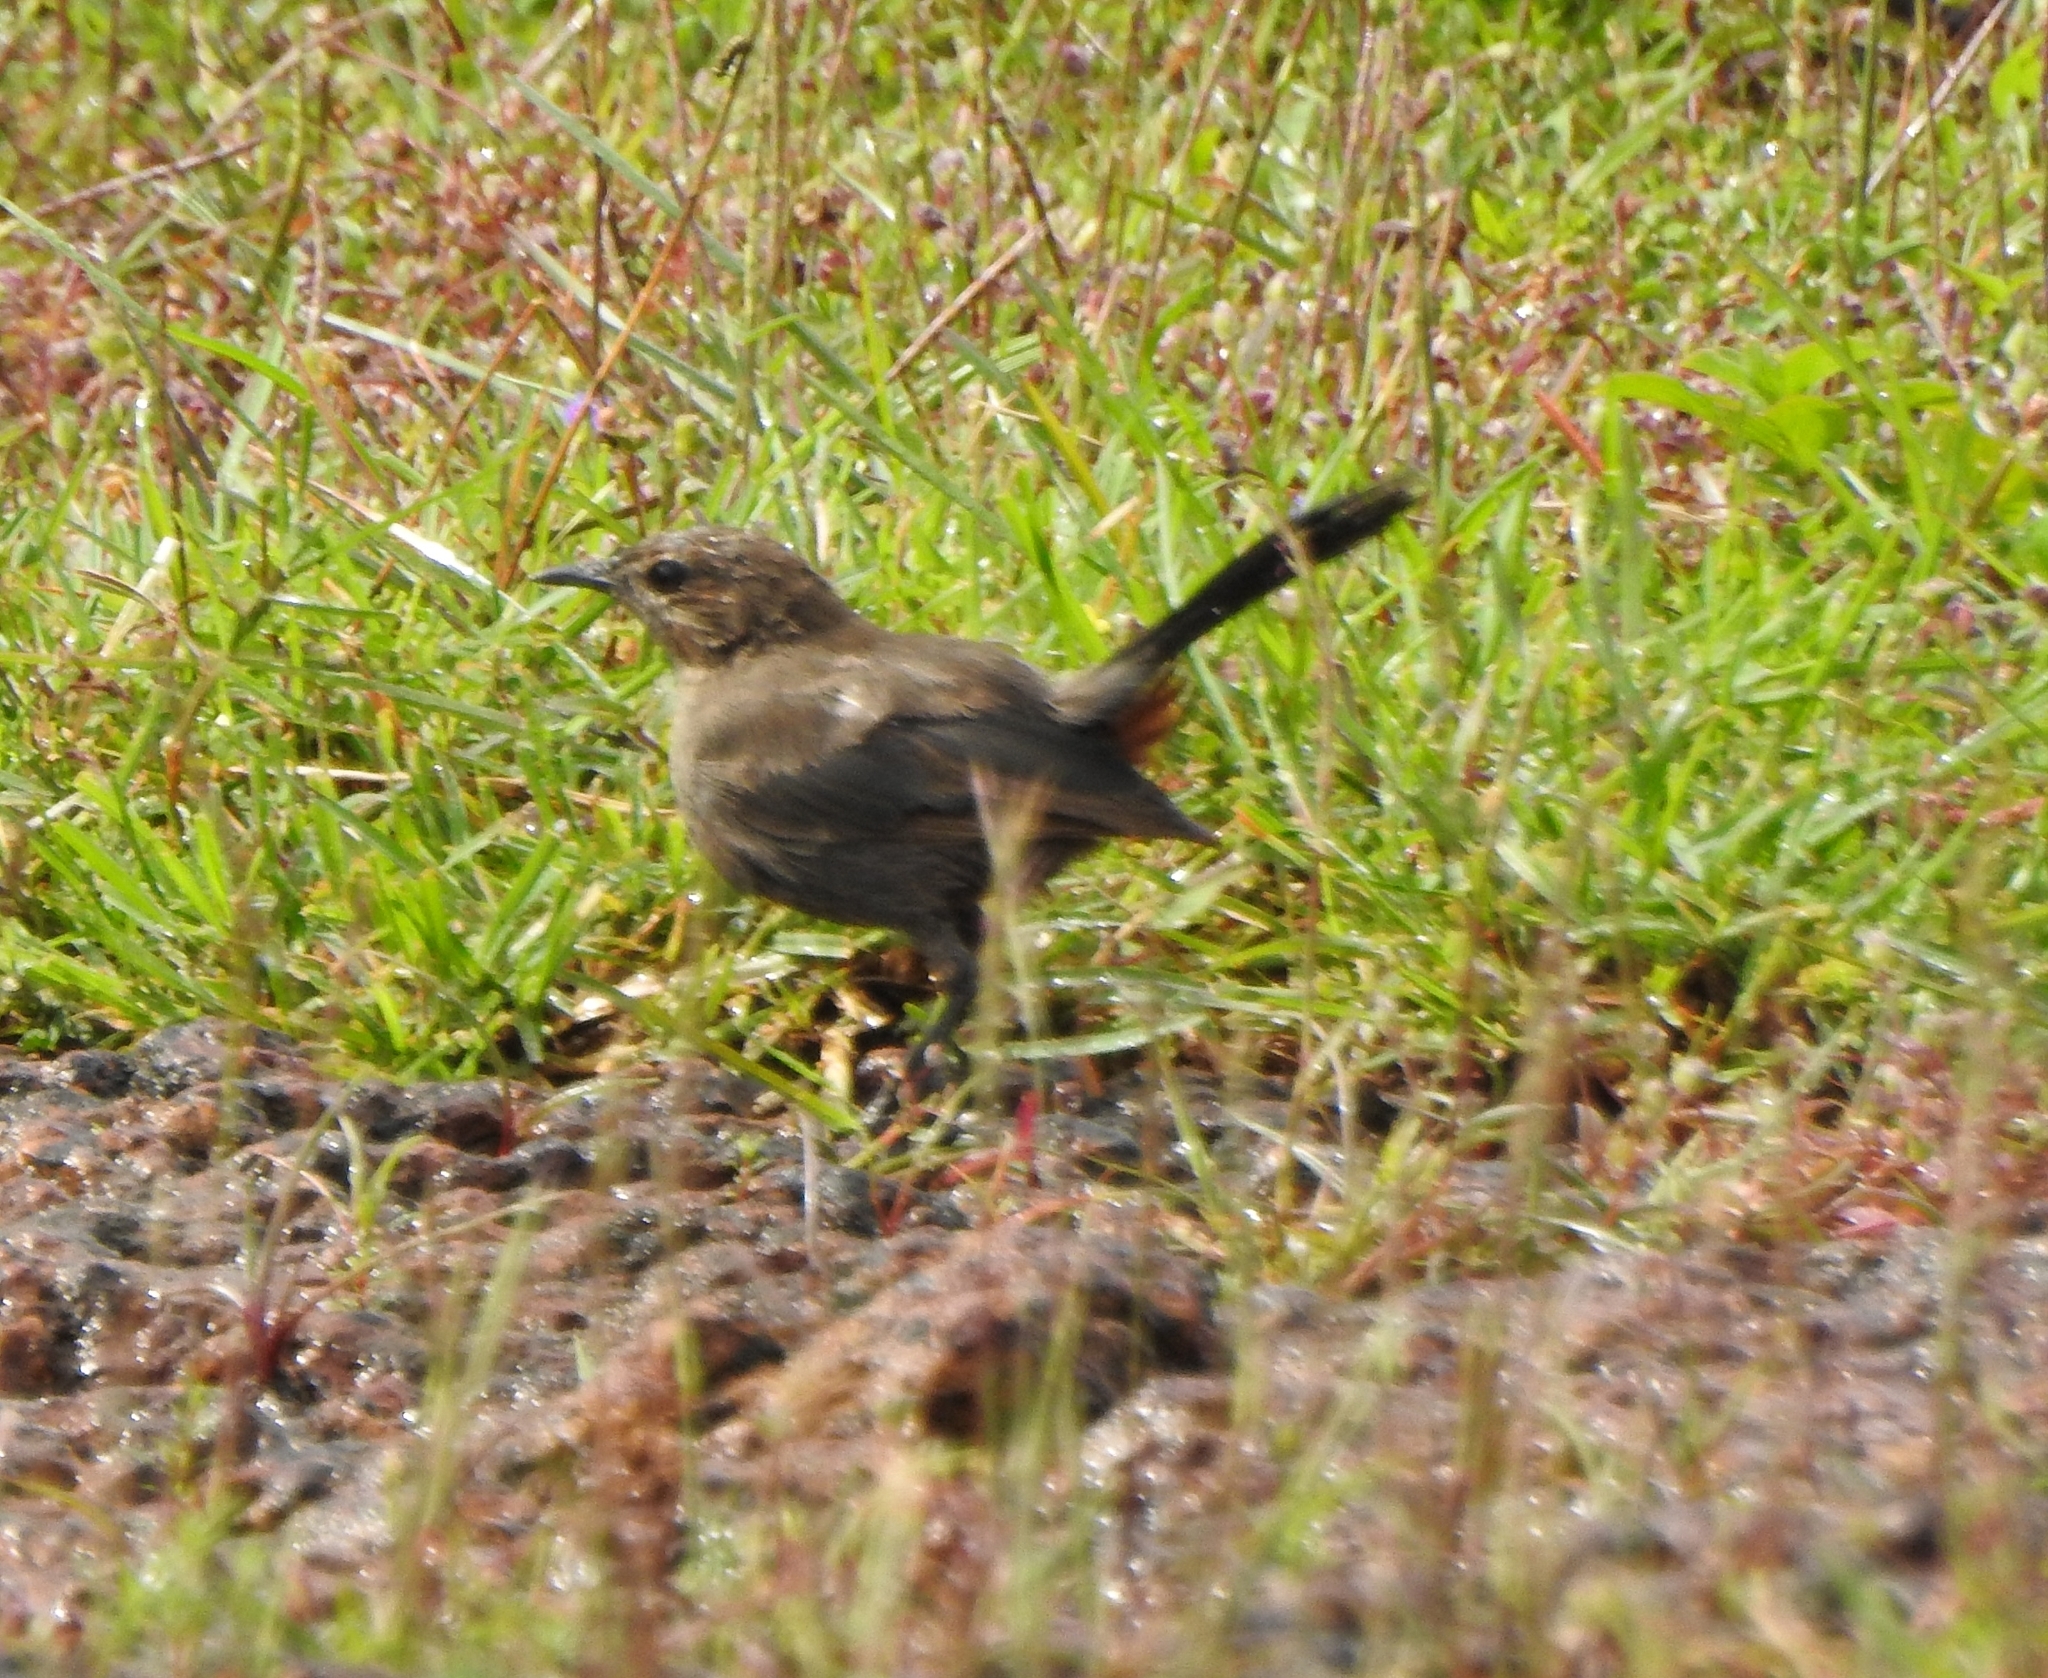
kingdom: Animalia
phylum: Chordata
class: Aves
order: Passeriformes
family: Muscicapidae
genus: Saxicoloides
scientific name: Saxicoloides fulicatus
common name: Indian robin
